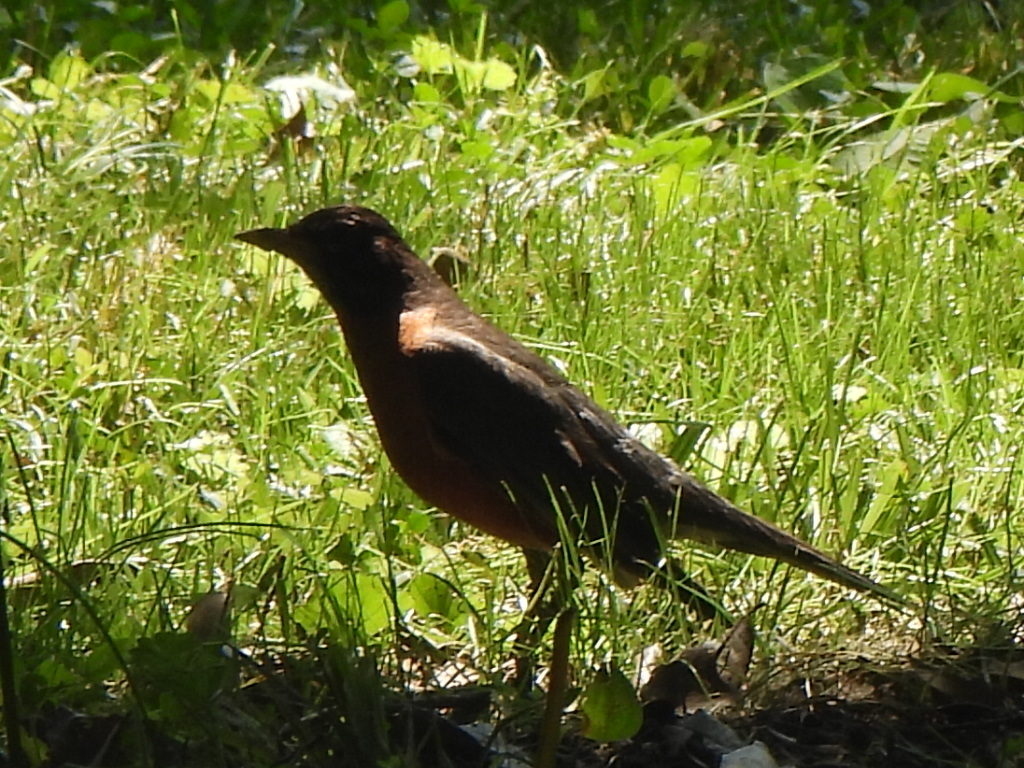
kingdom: Animalia
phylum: Chordata
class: Aves
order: Passeriformes
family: Turdidae
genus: Turdus
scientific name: Turdus migratorius
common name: American robin
